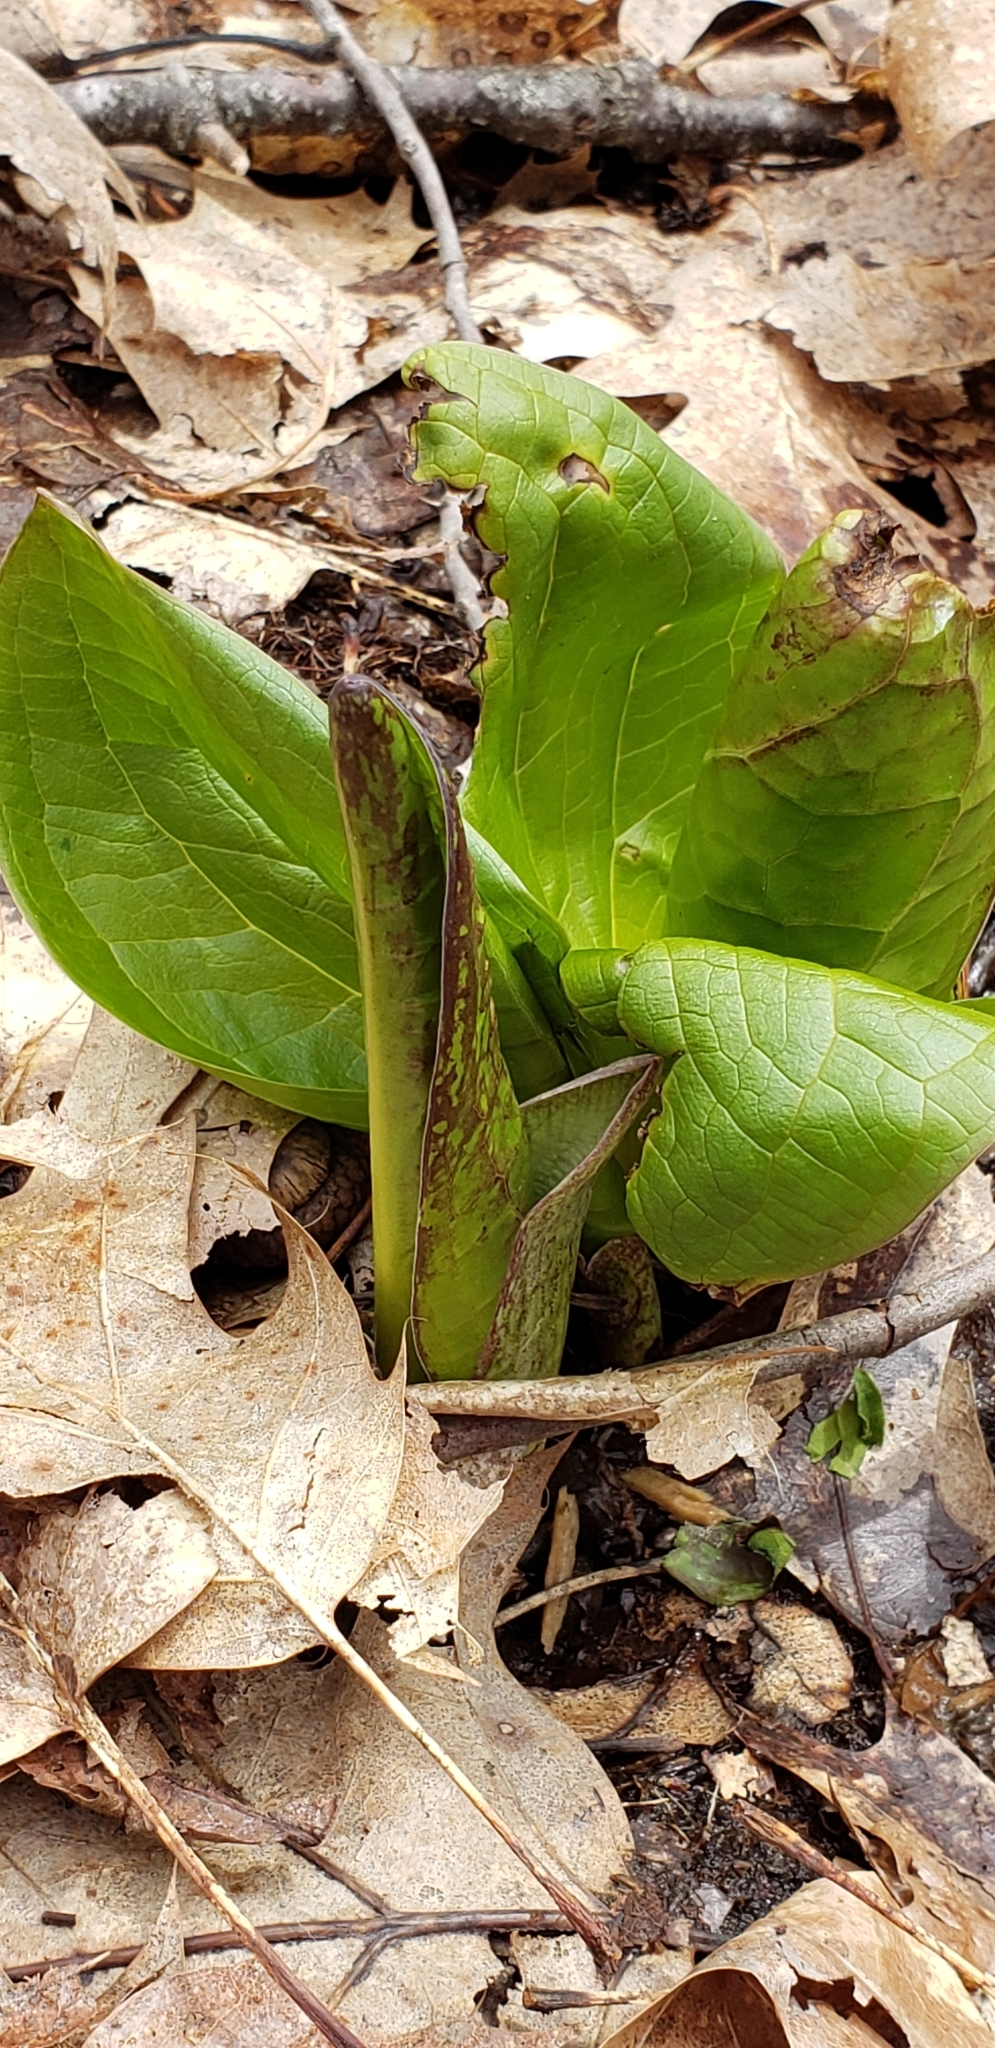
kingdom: Plantae
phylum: Tracheophyta
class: Liliopsida
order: Alismatales
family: Araceae
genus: Symplocarpus
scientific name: Symplocarpus foetidus
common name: Eastern skunk cabbage
